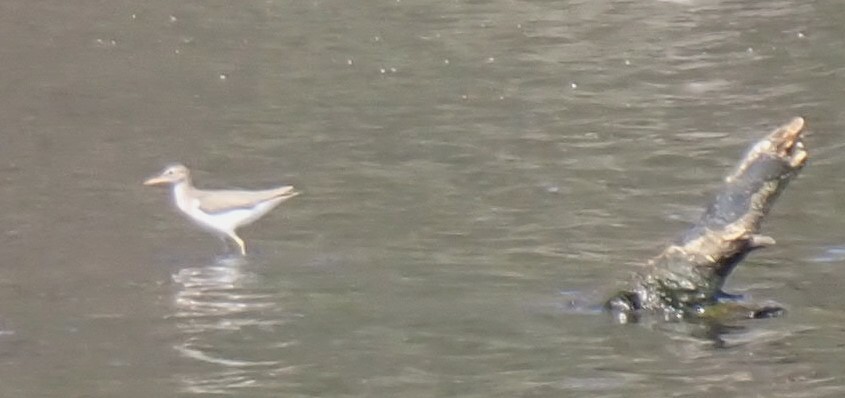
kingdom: Animalia
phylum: Chordata
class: Aves
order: Charadriiformes
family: Scolopacidae
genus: Actitis
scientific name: Actitis macularius
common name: Spotted sandpiper
